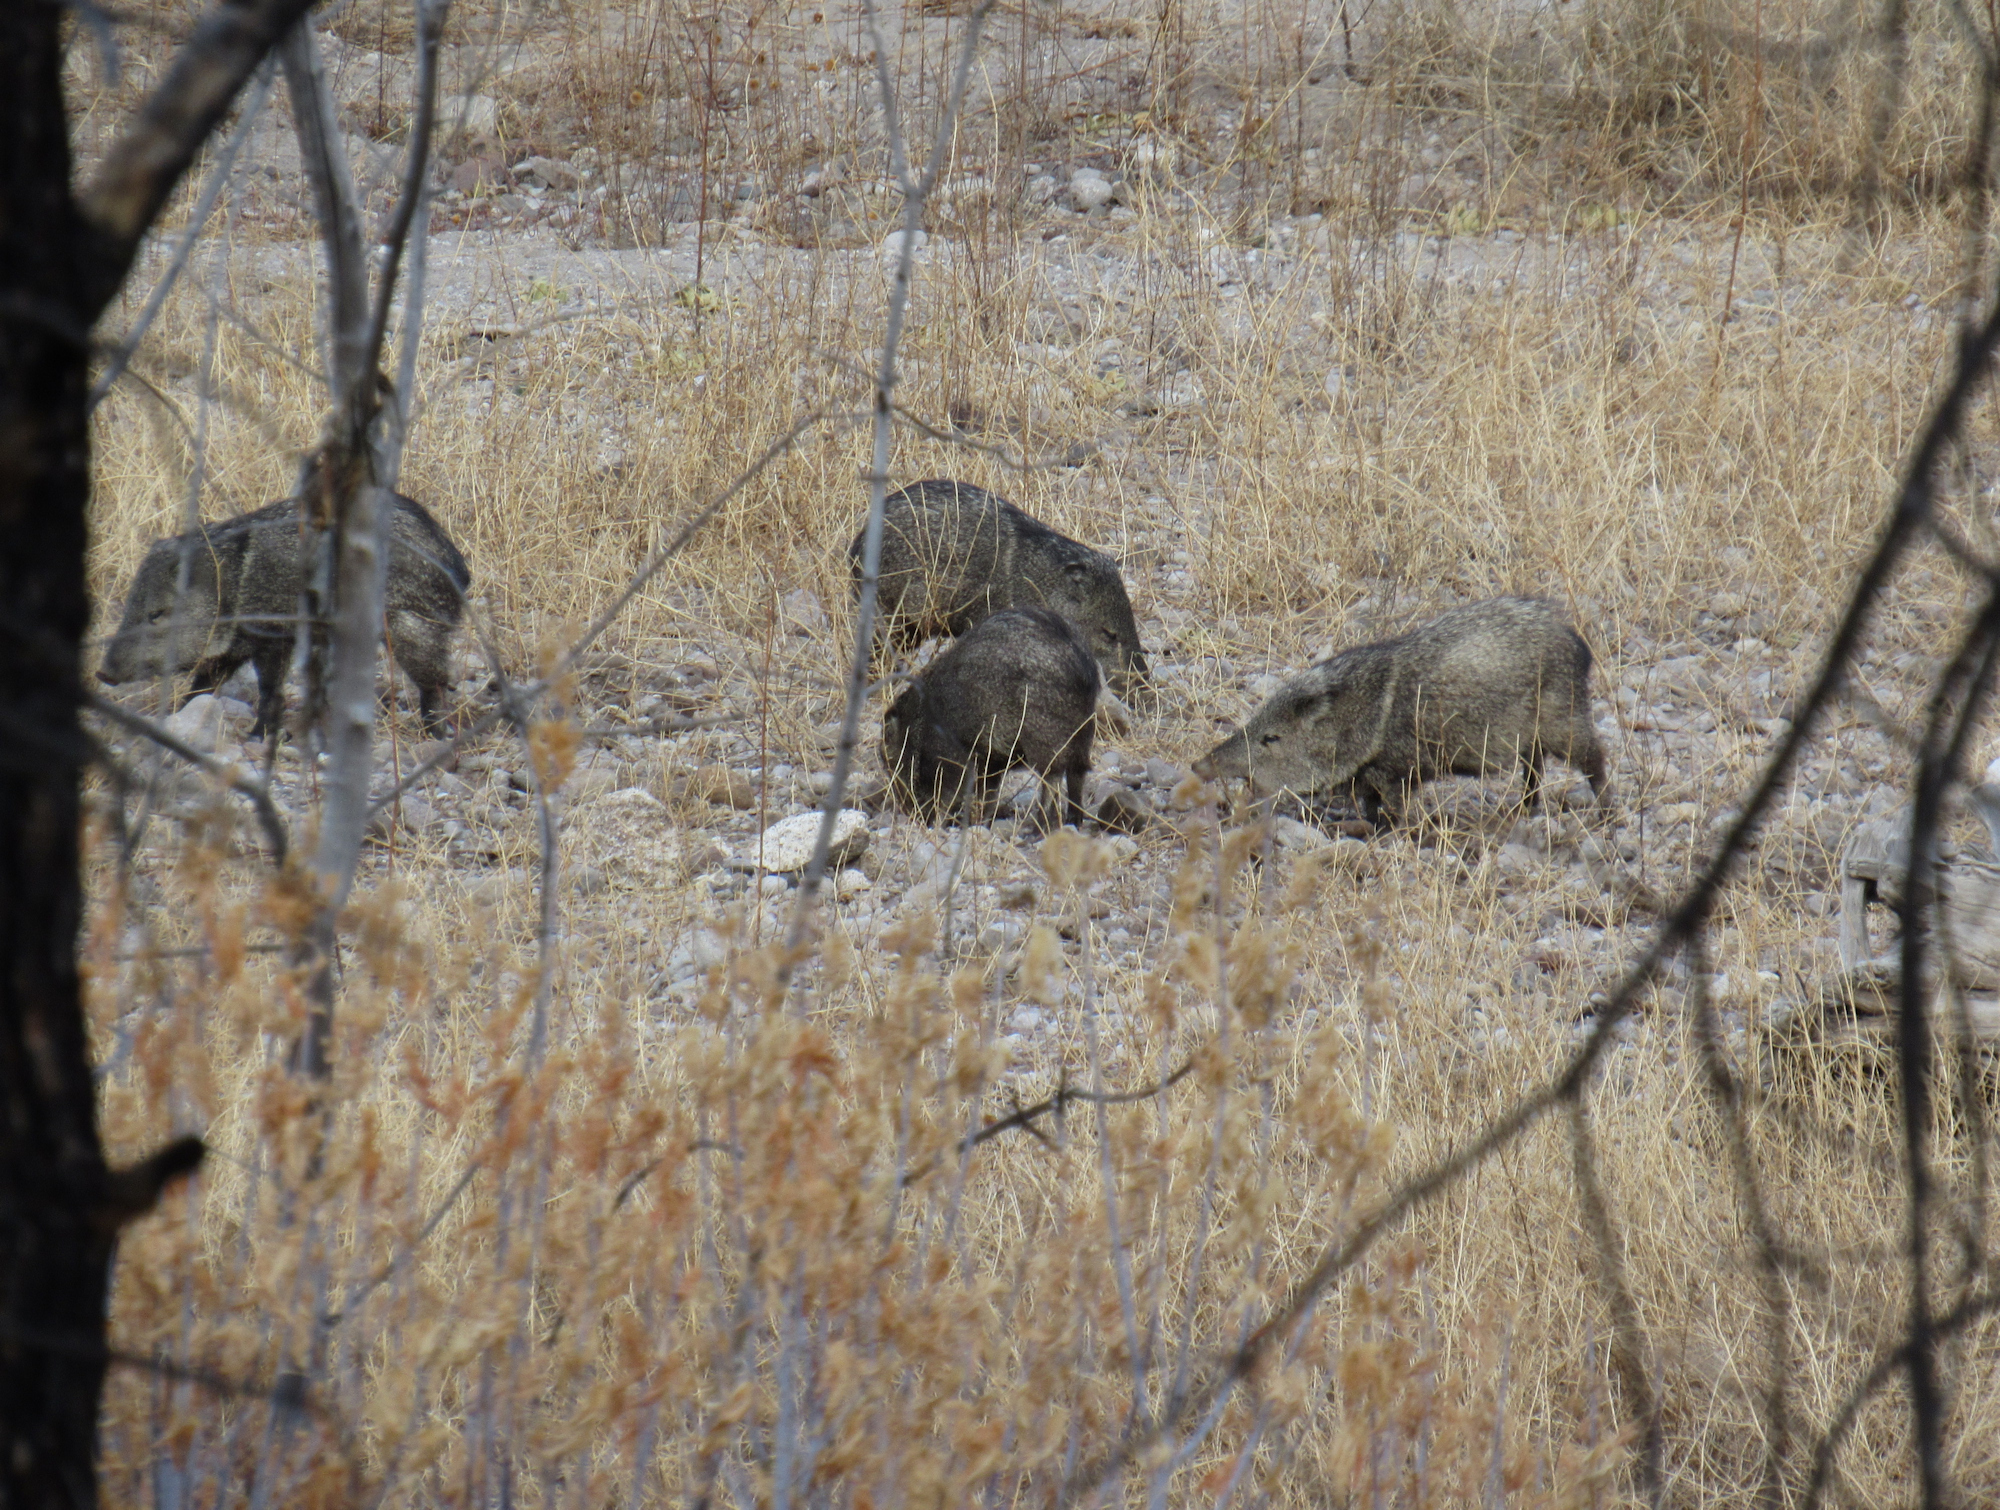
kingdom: Animalia
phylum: Chordata
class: Mammalia
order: Artiodactyla
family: Tayassuidae
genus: Pecari
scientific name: Pecari tajacu
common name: Collared peccary
